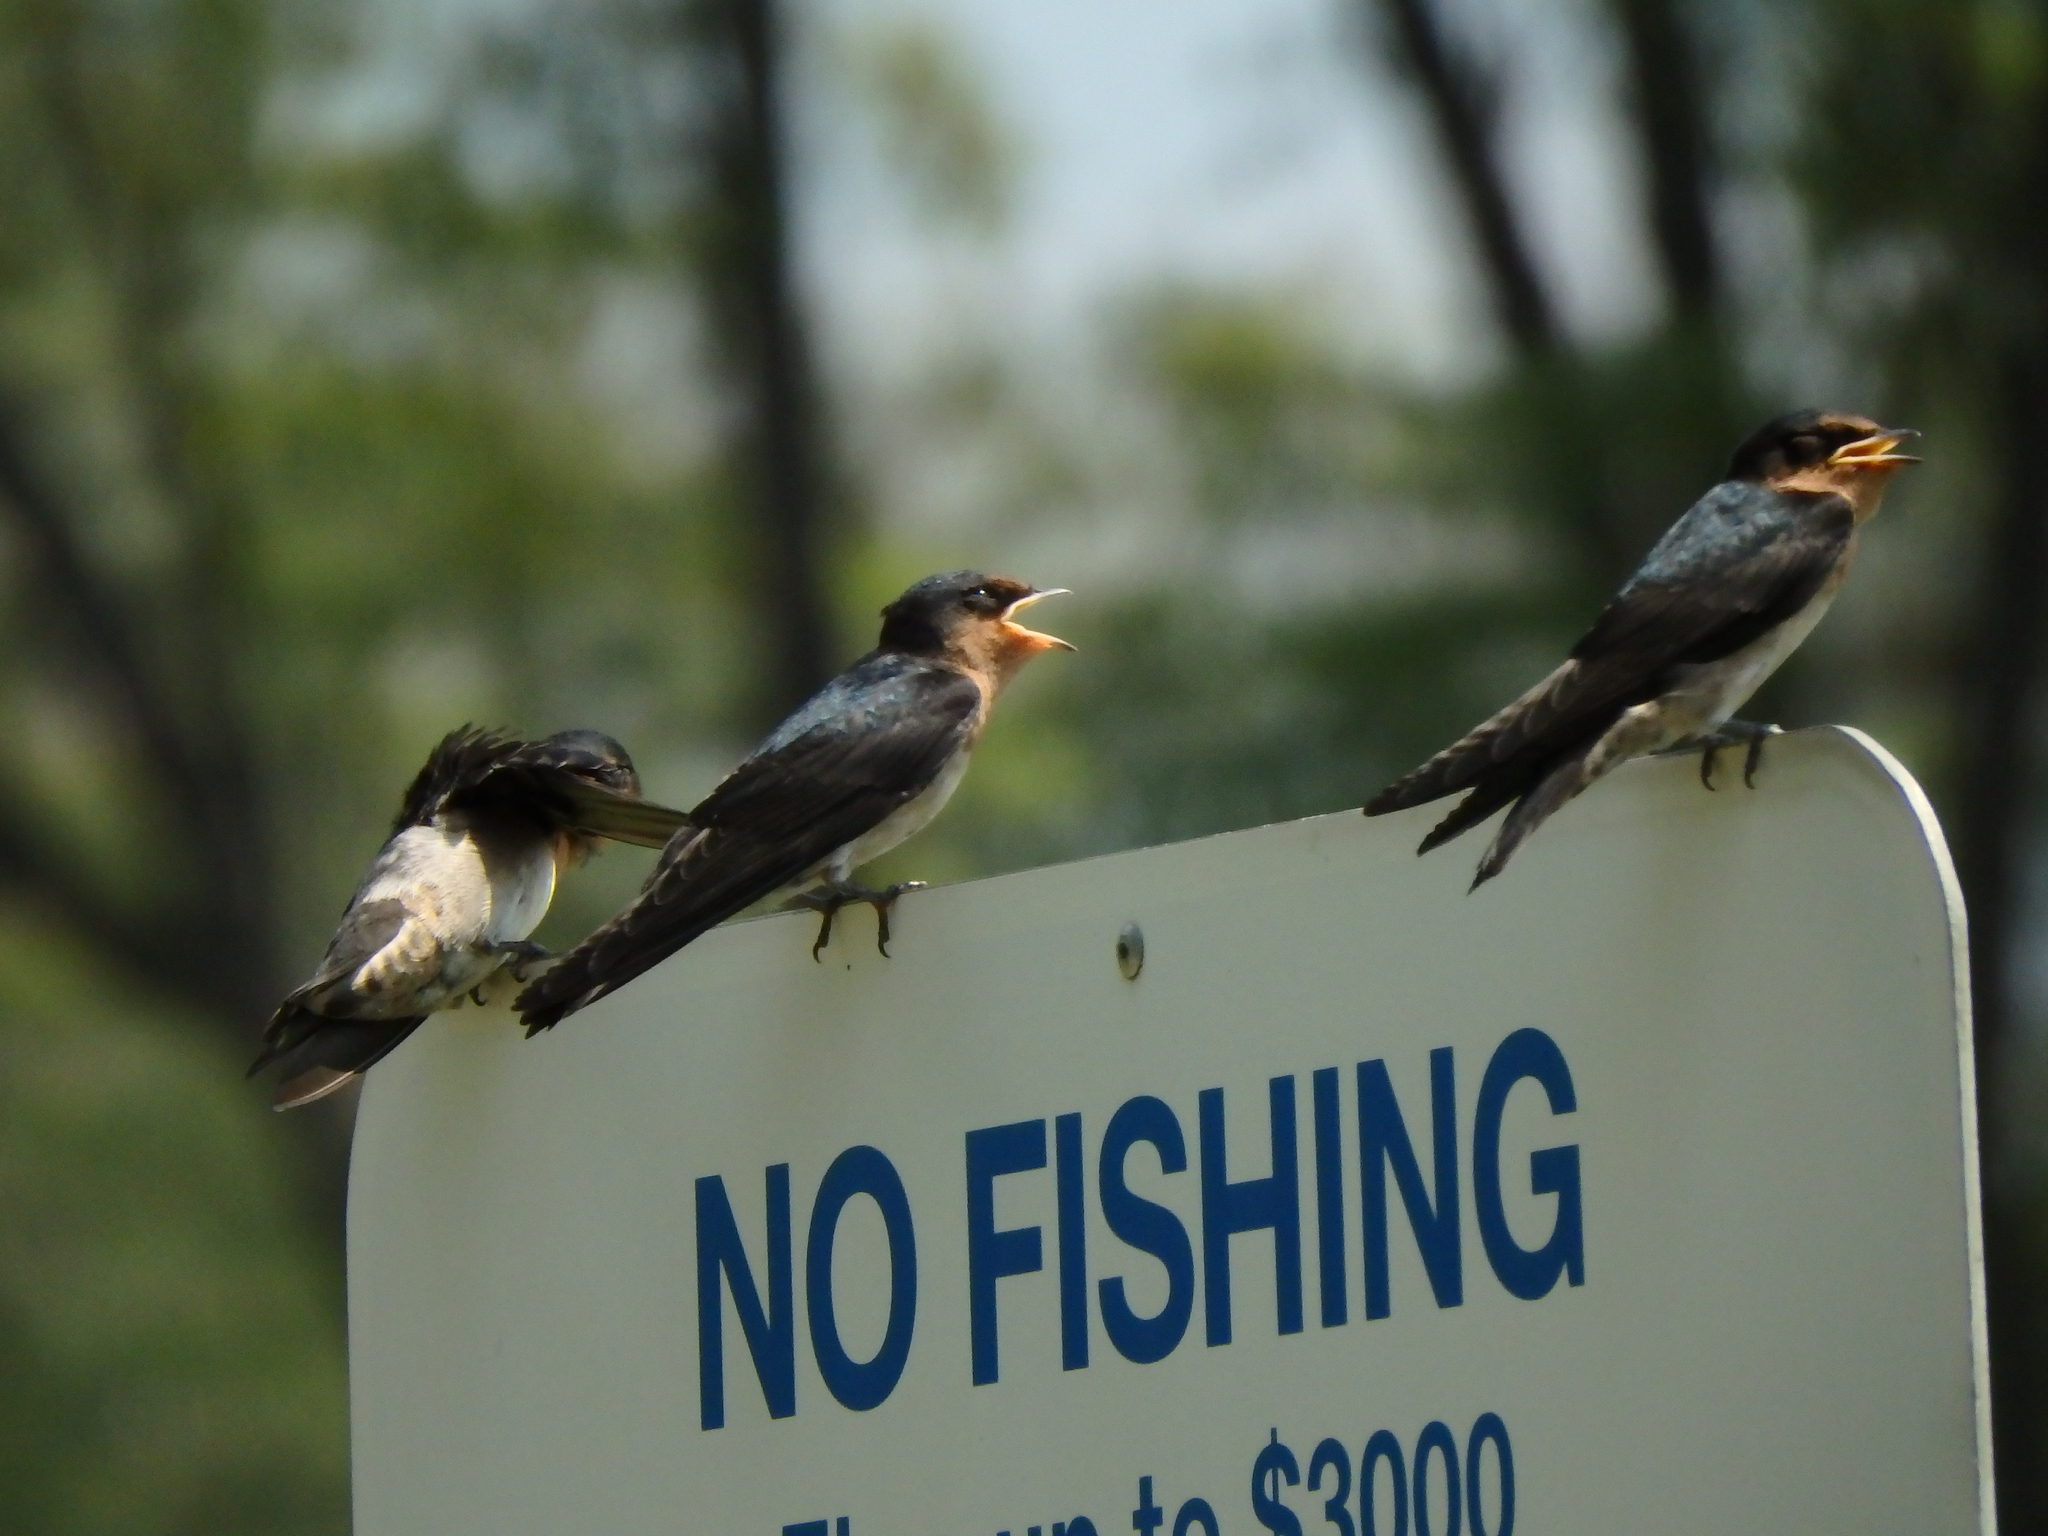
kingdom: Animalia
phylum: Chordata
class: Aves
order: Passeriformes
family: Hirundinidae
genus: Hirundo
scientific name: Hirundo tahitica
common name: Pacific swallow
